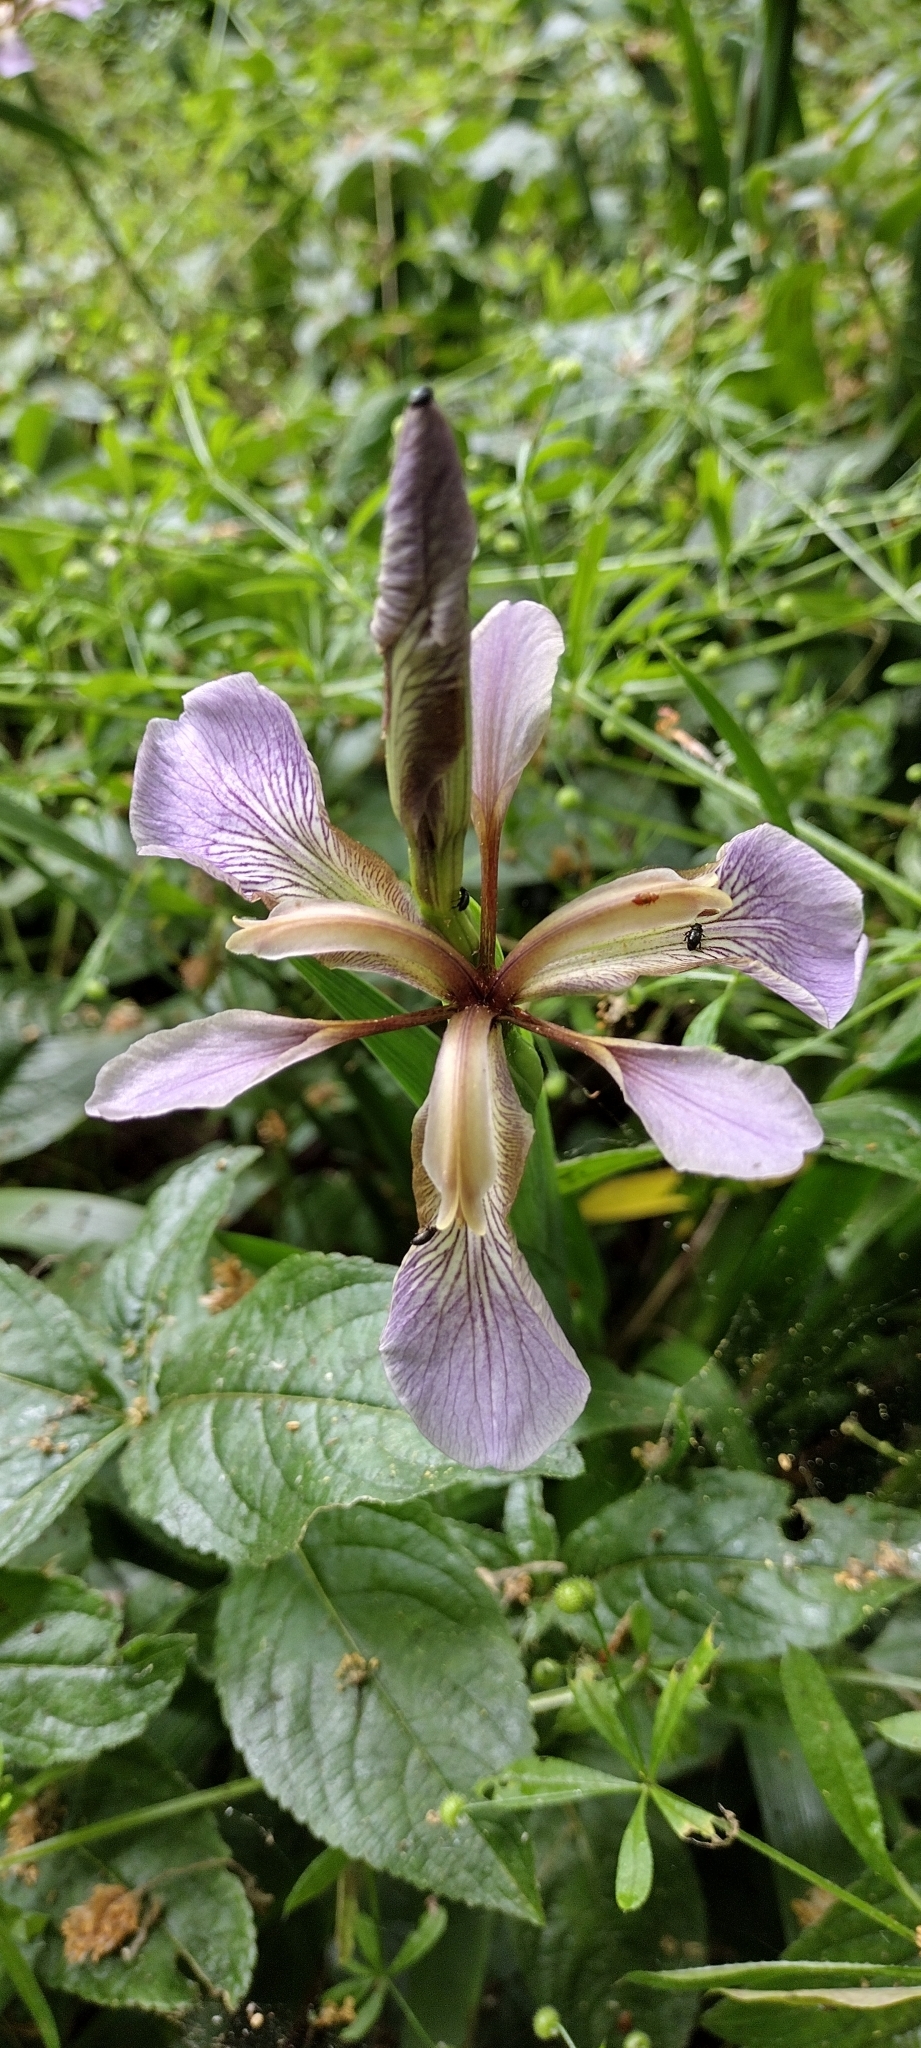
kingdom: Plantae
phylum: Tracheophyta
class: Liliopsida
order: Asparagales
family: Iridaceae
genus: Iris
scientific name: Iris foetidissima
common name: Stinking iris
